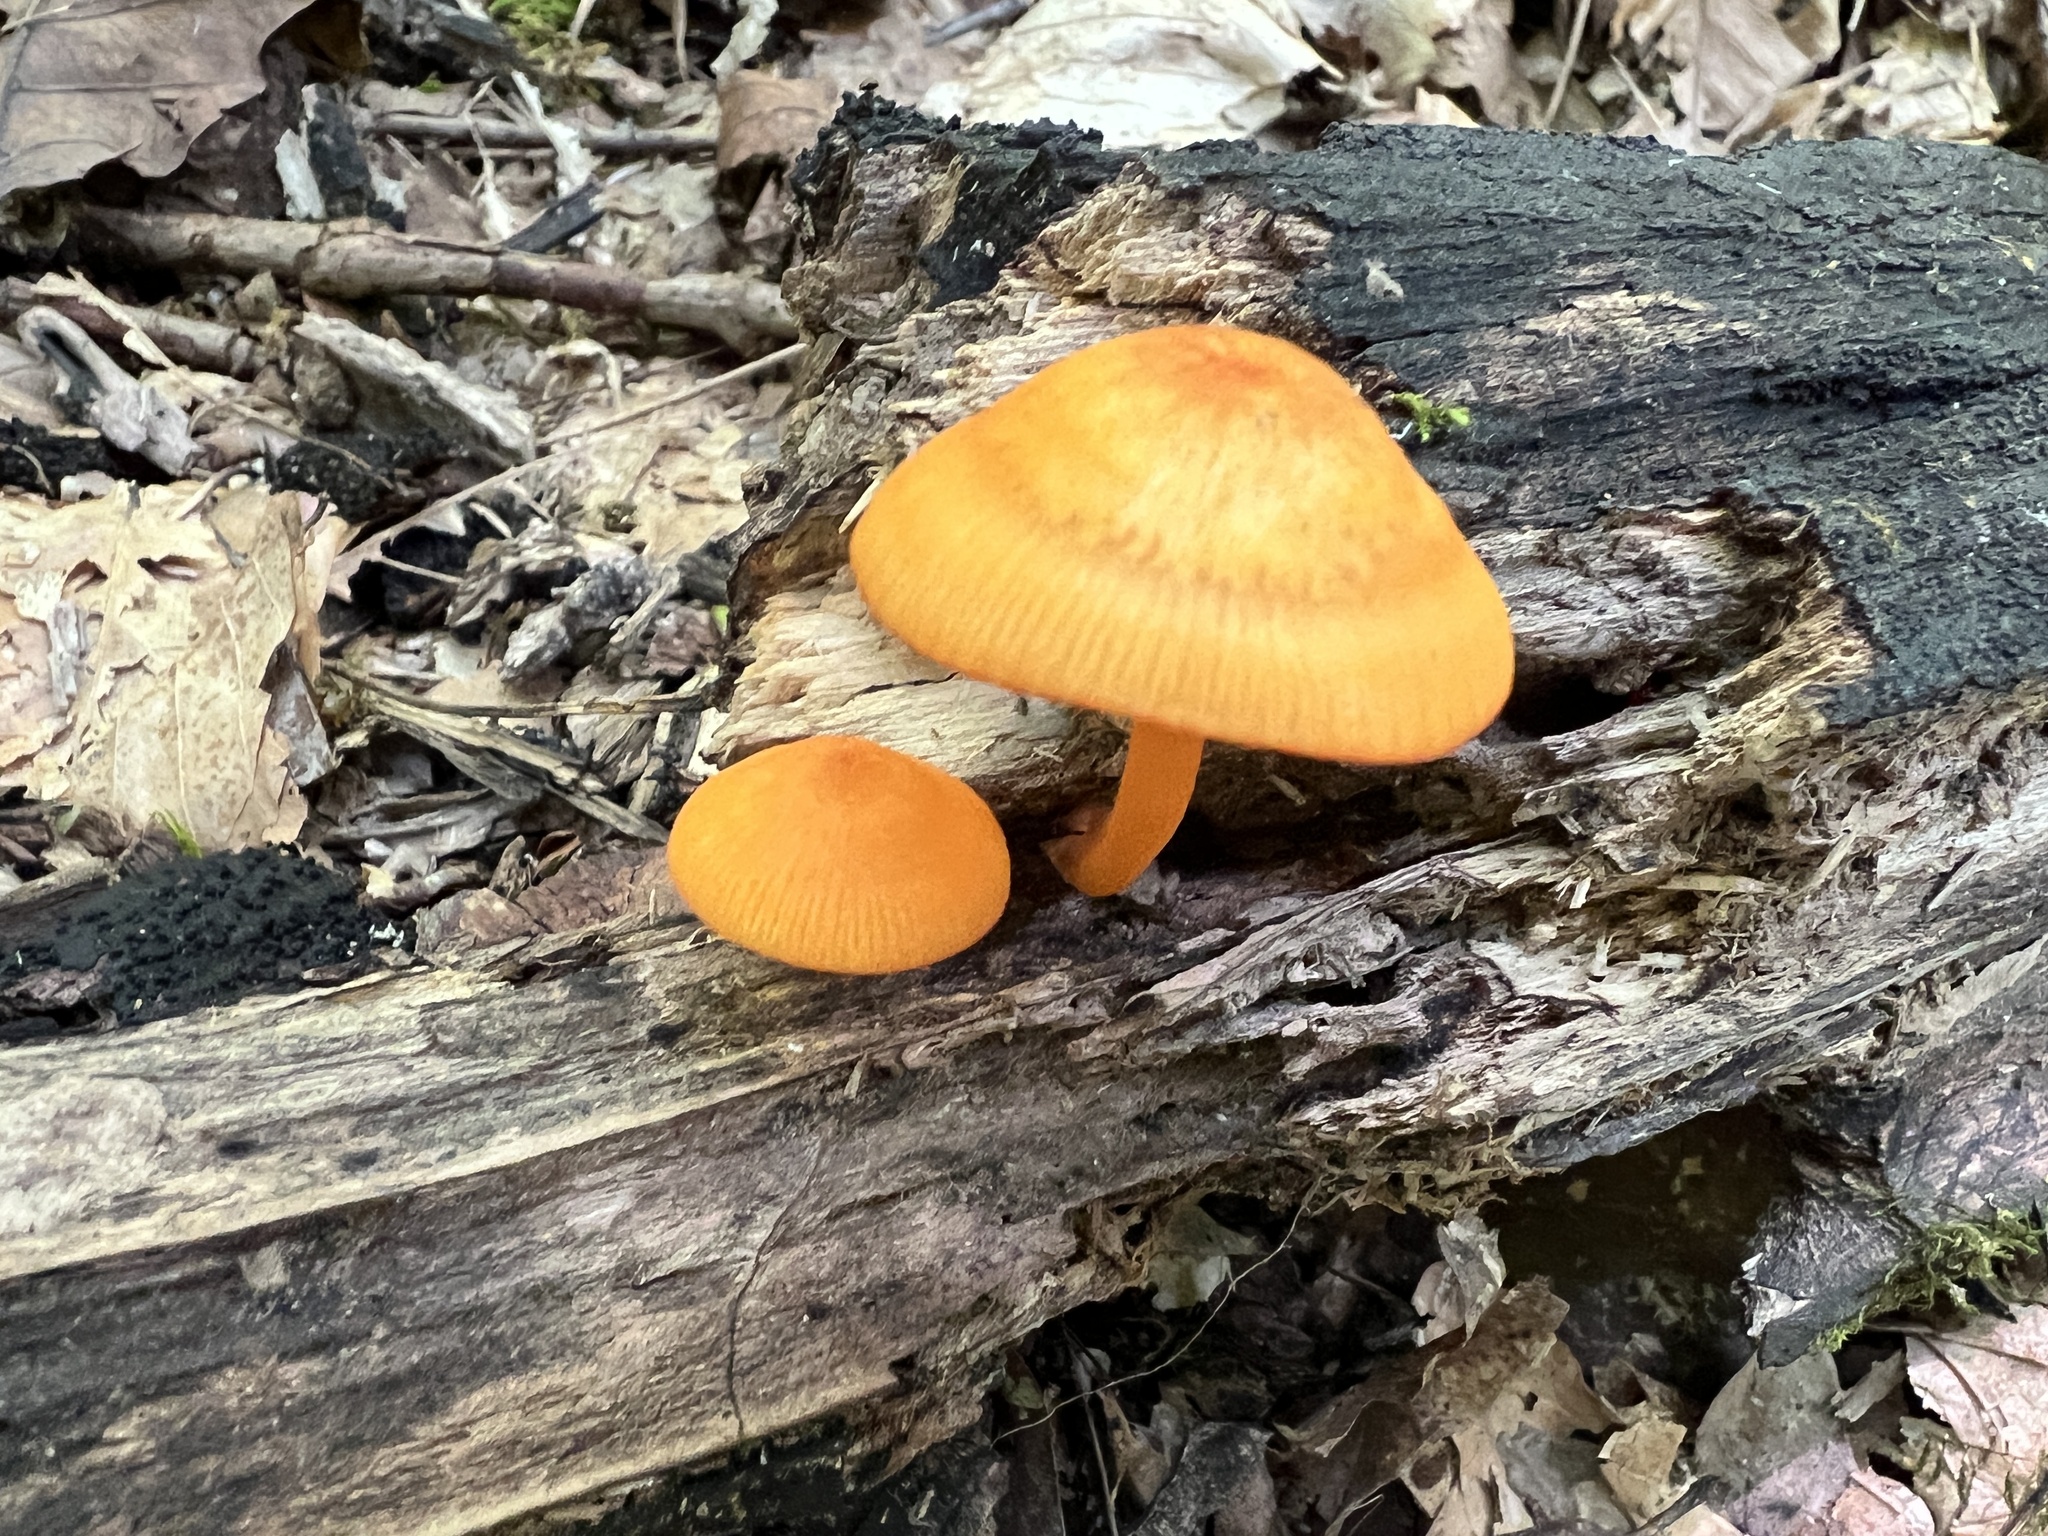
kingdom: Fungi
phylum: Basidiomycota
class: Agaricomycetes
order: Agaricales
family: Mycenaceae
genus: Mycena
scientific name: Mycena leaiana
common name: Orange mycena
